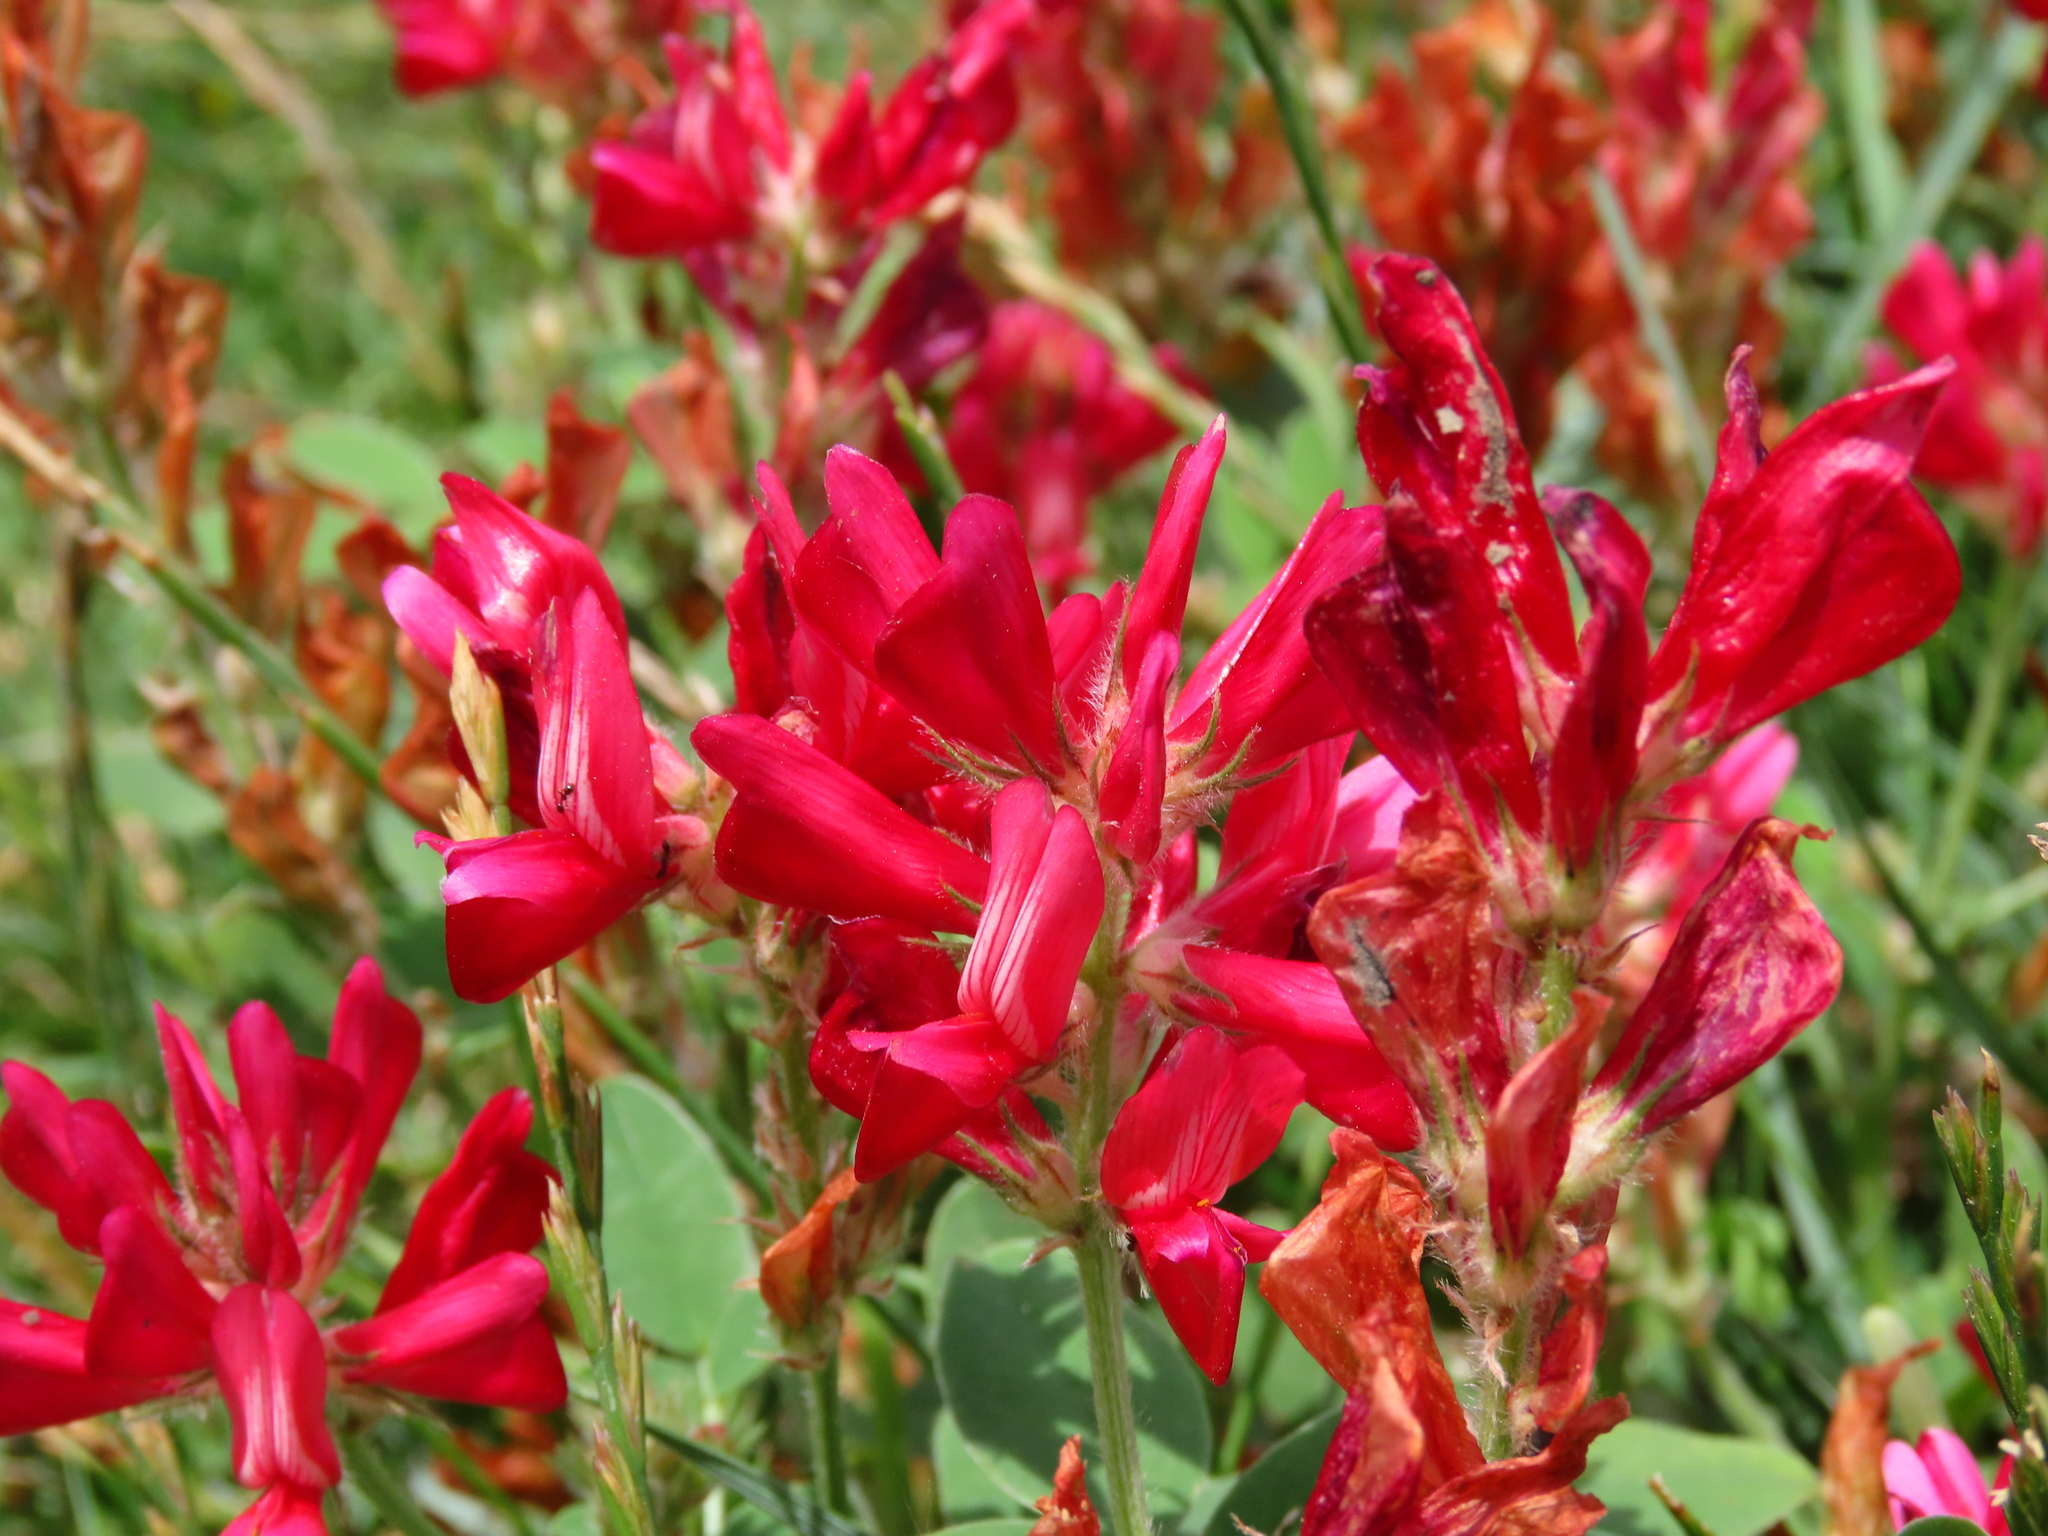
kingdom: Plantae
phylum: Tracheophyta
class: Magnoliopsida
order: Fabales
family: Fabaceae
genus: Sulla
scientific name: Sulla coronaria
